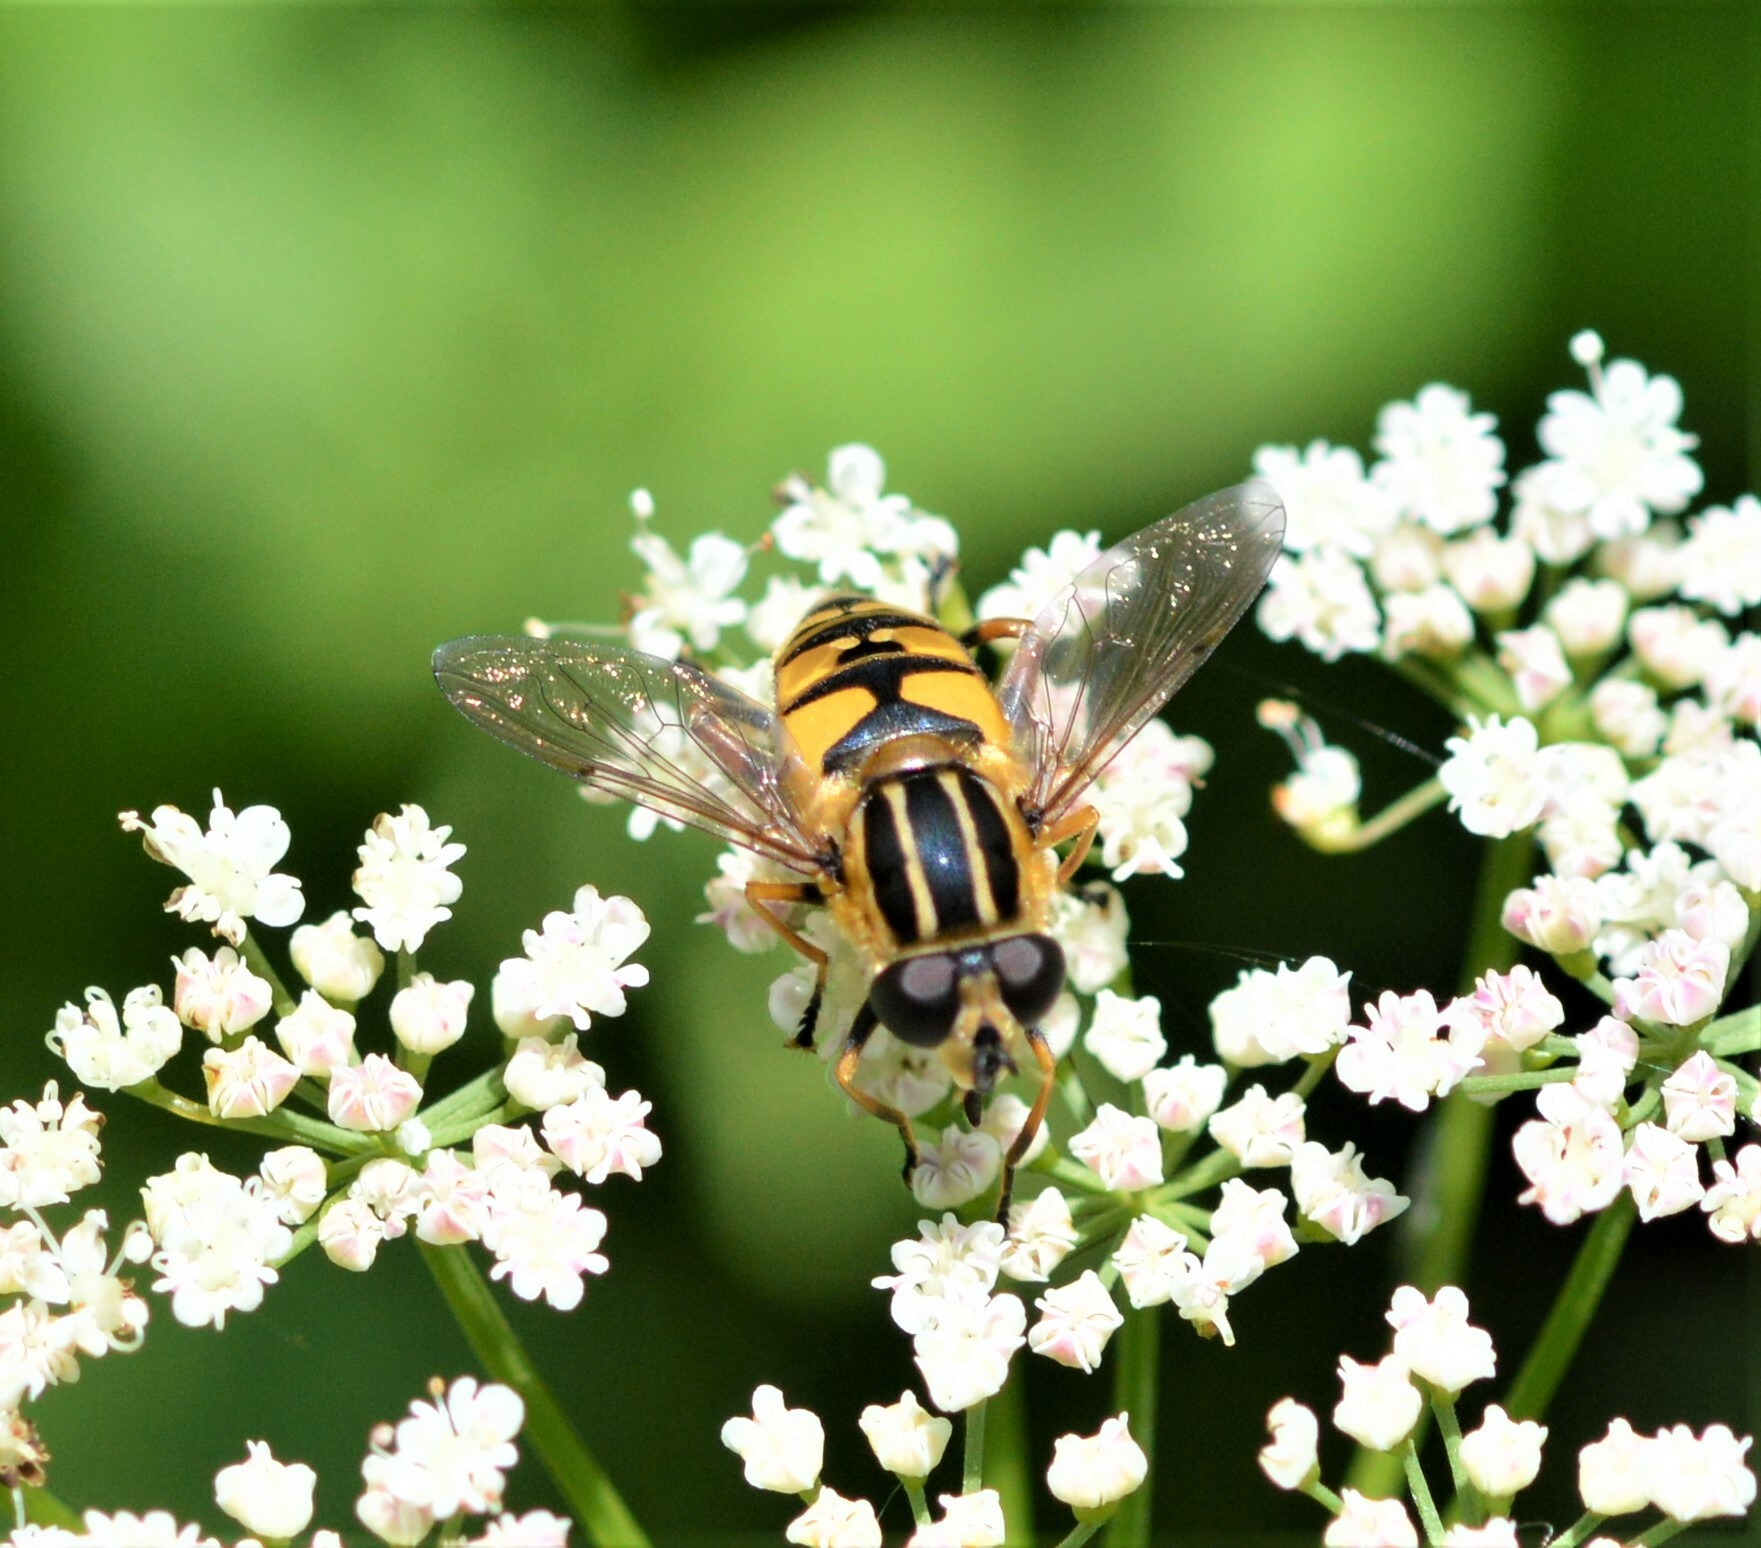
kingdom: Animalia
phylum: Arthropoda
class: Insecta
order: Diptera
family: Syrphidae
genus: Helophilus
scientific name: Helophilus pendulus
